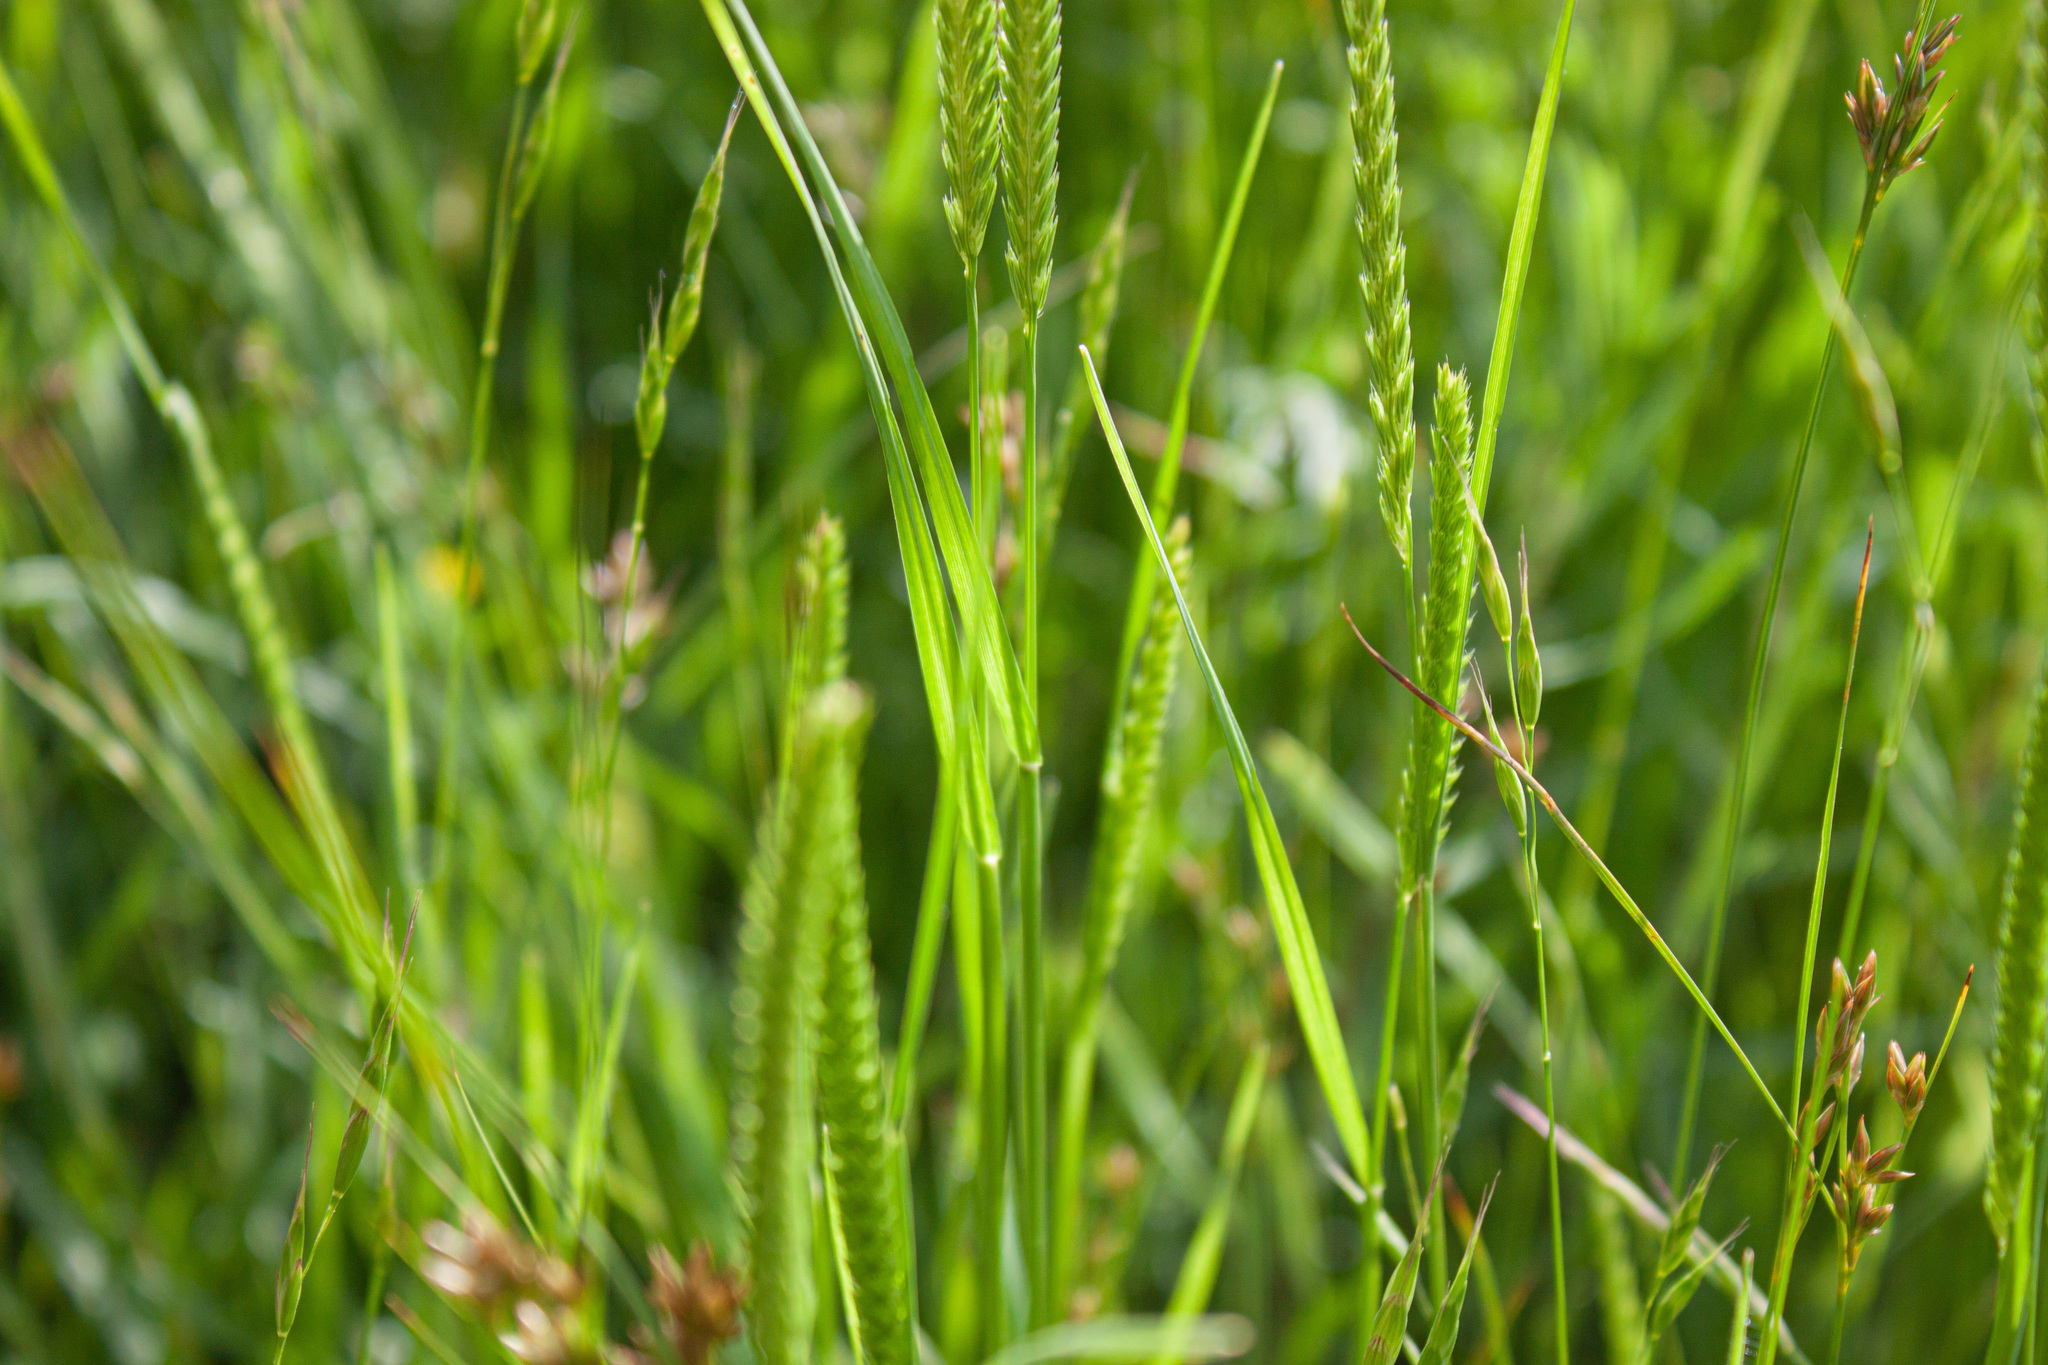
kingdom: Plantae
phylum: Tracheophyta
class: Liliopsida
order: Poales
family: Poaceae
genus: Cynosurus
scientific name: Cynosurus cristatus
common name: Crested dog's-tail
